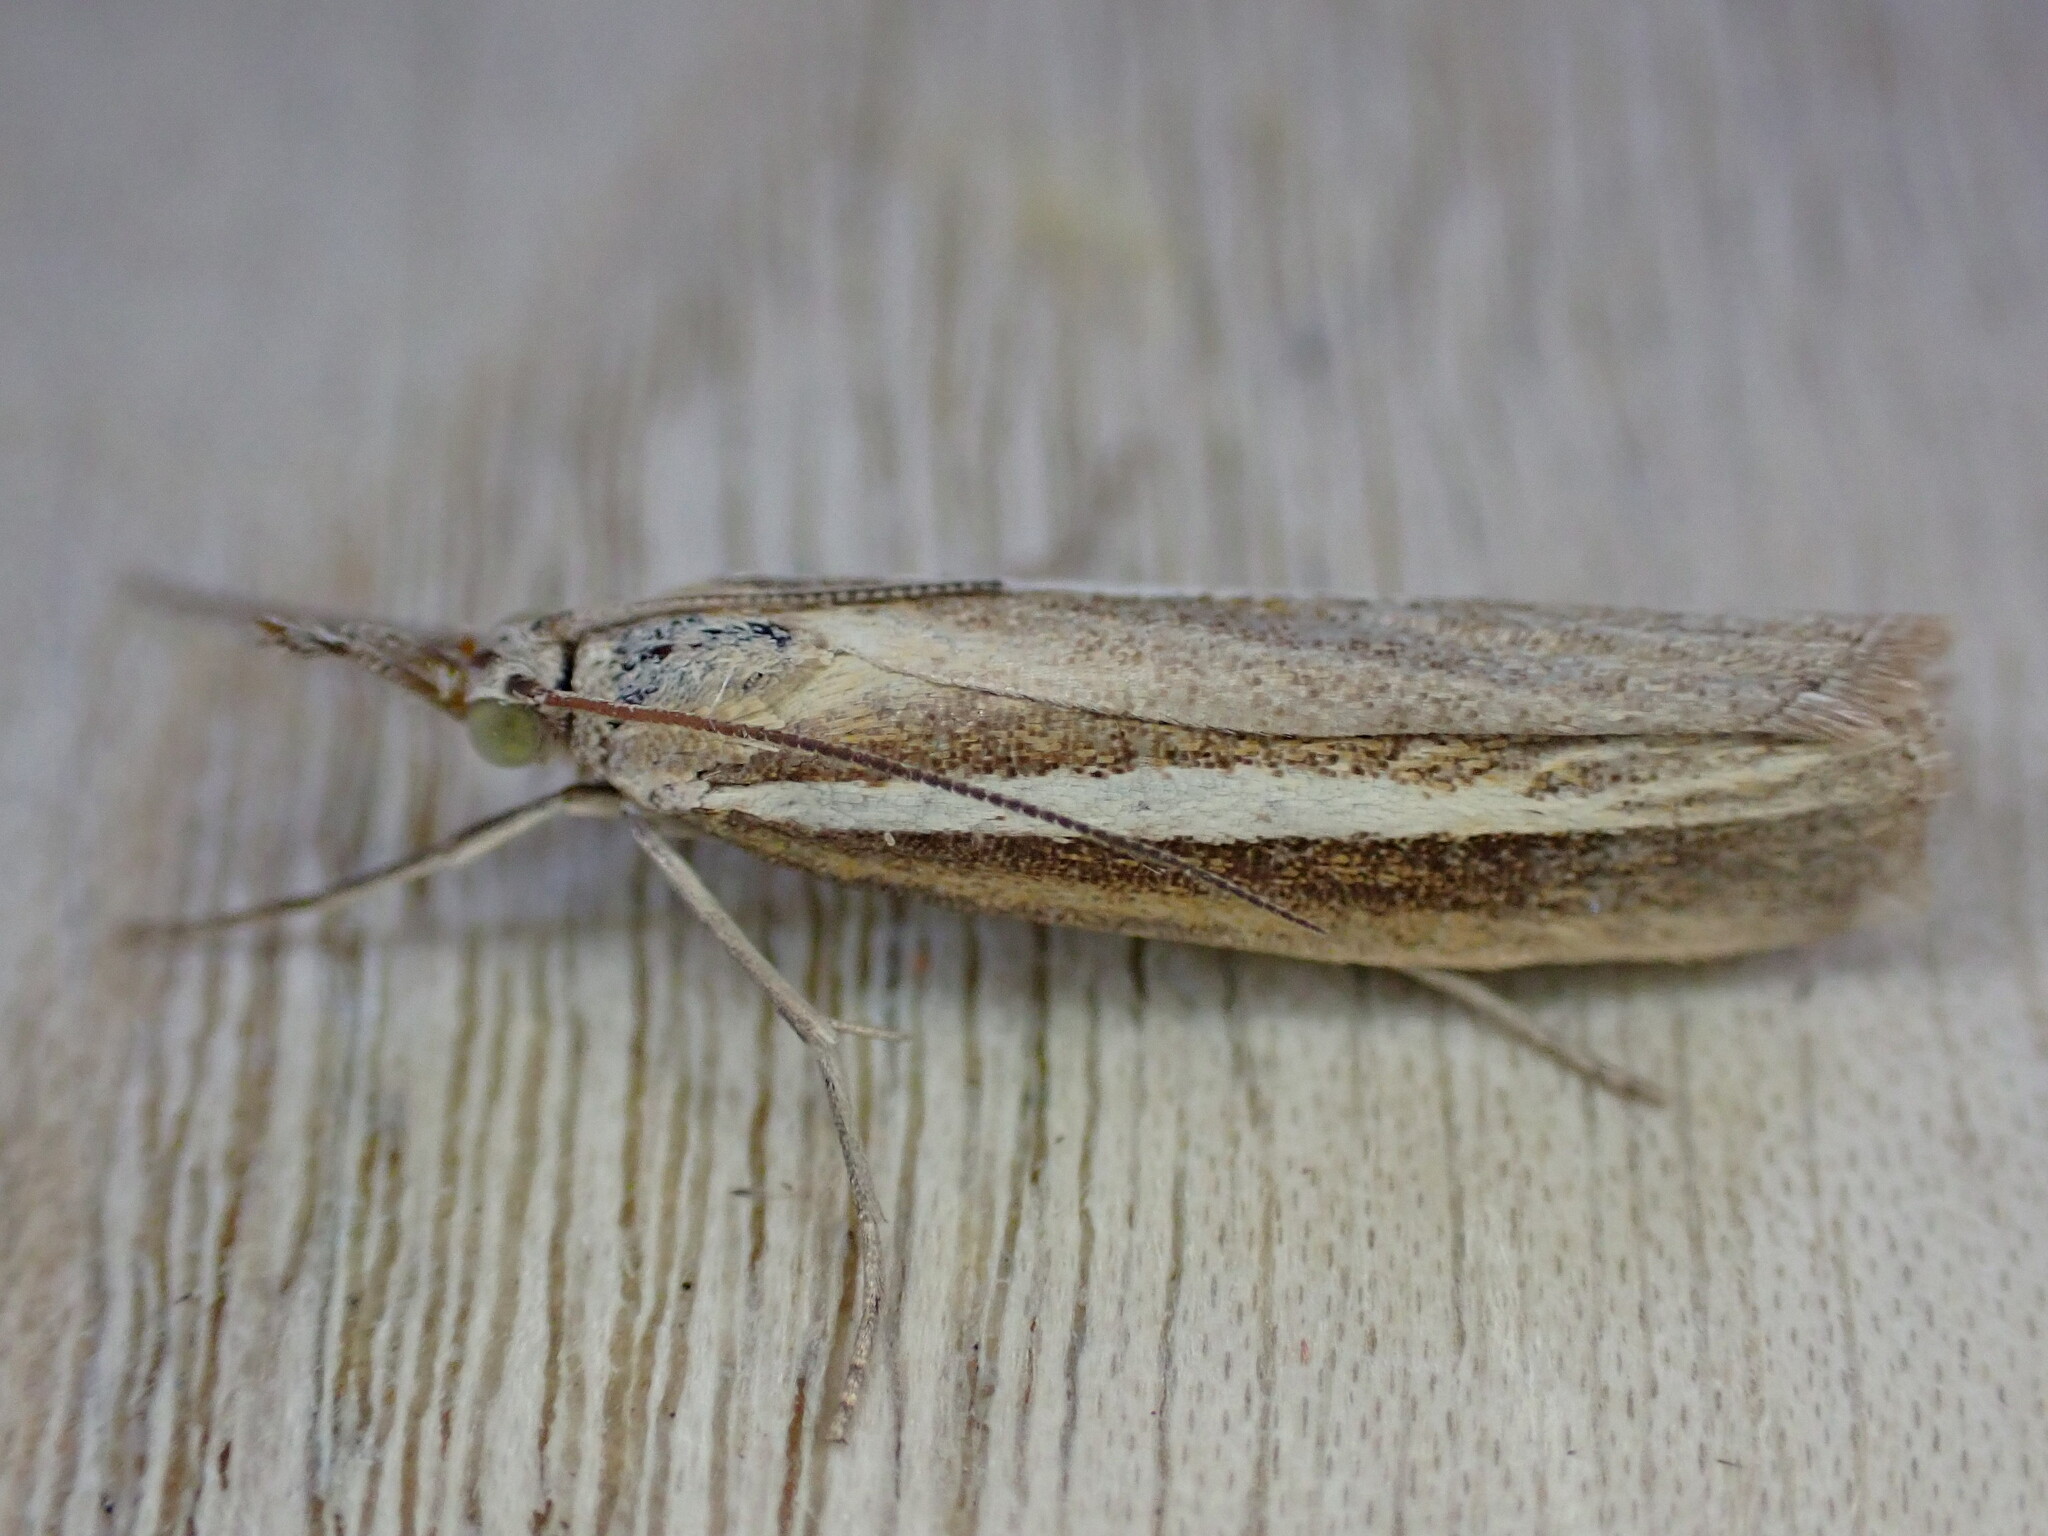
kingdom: Animalia
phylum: Arthropoda
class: Insecta
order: Lepidoptera
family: Crambidae
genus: Agriphila
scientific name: Agriphila tristellus
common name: Common grass-veneer
